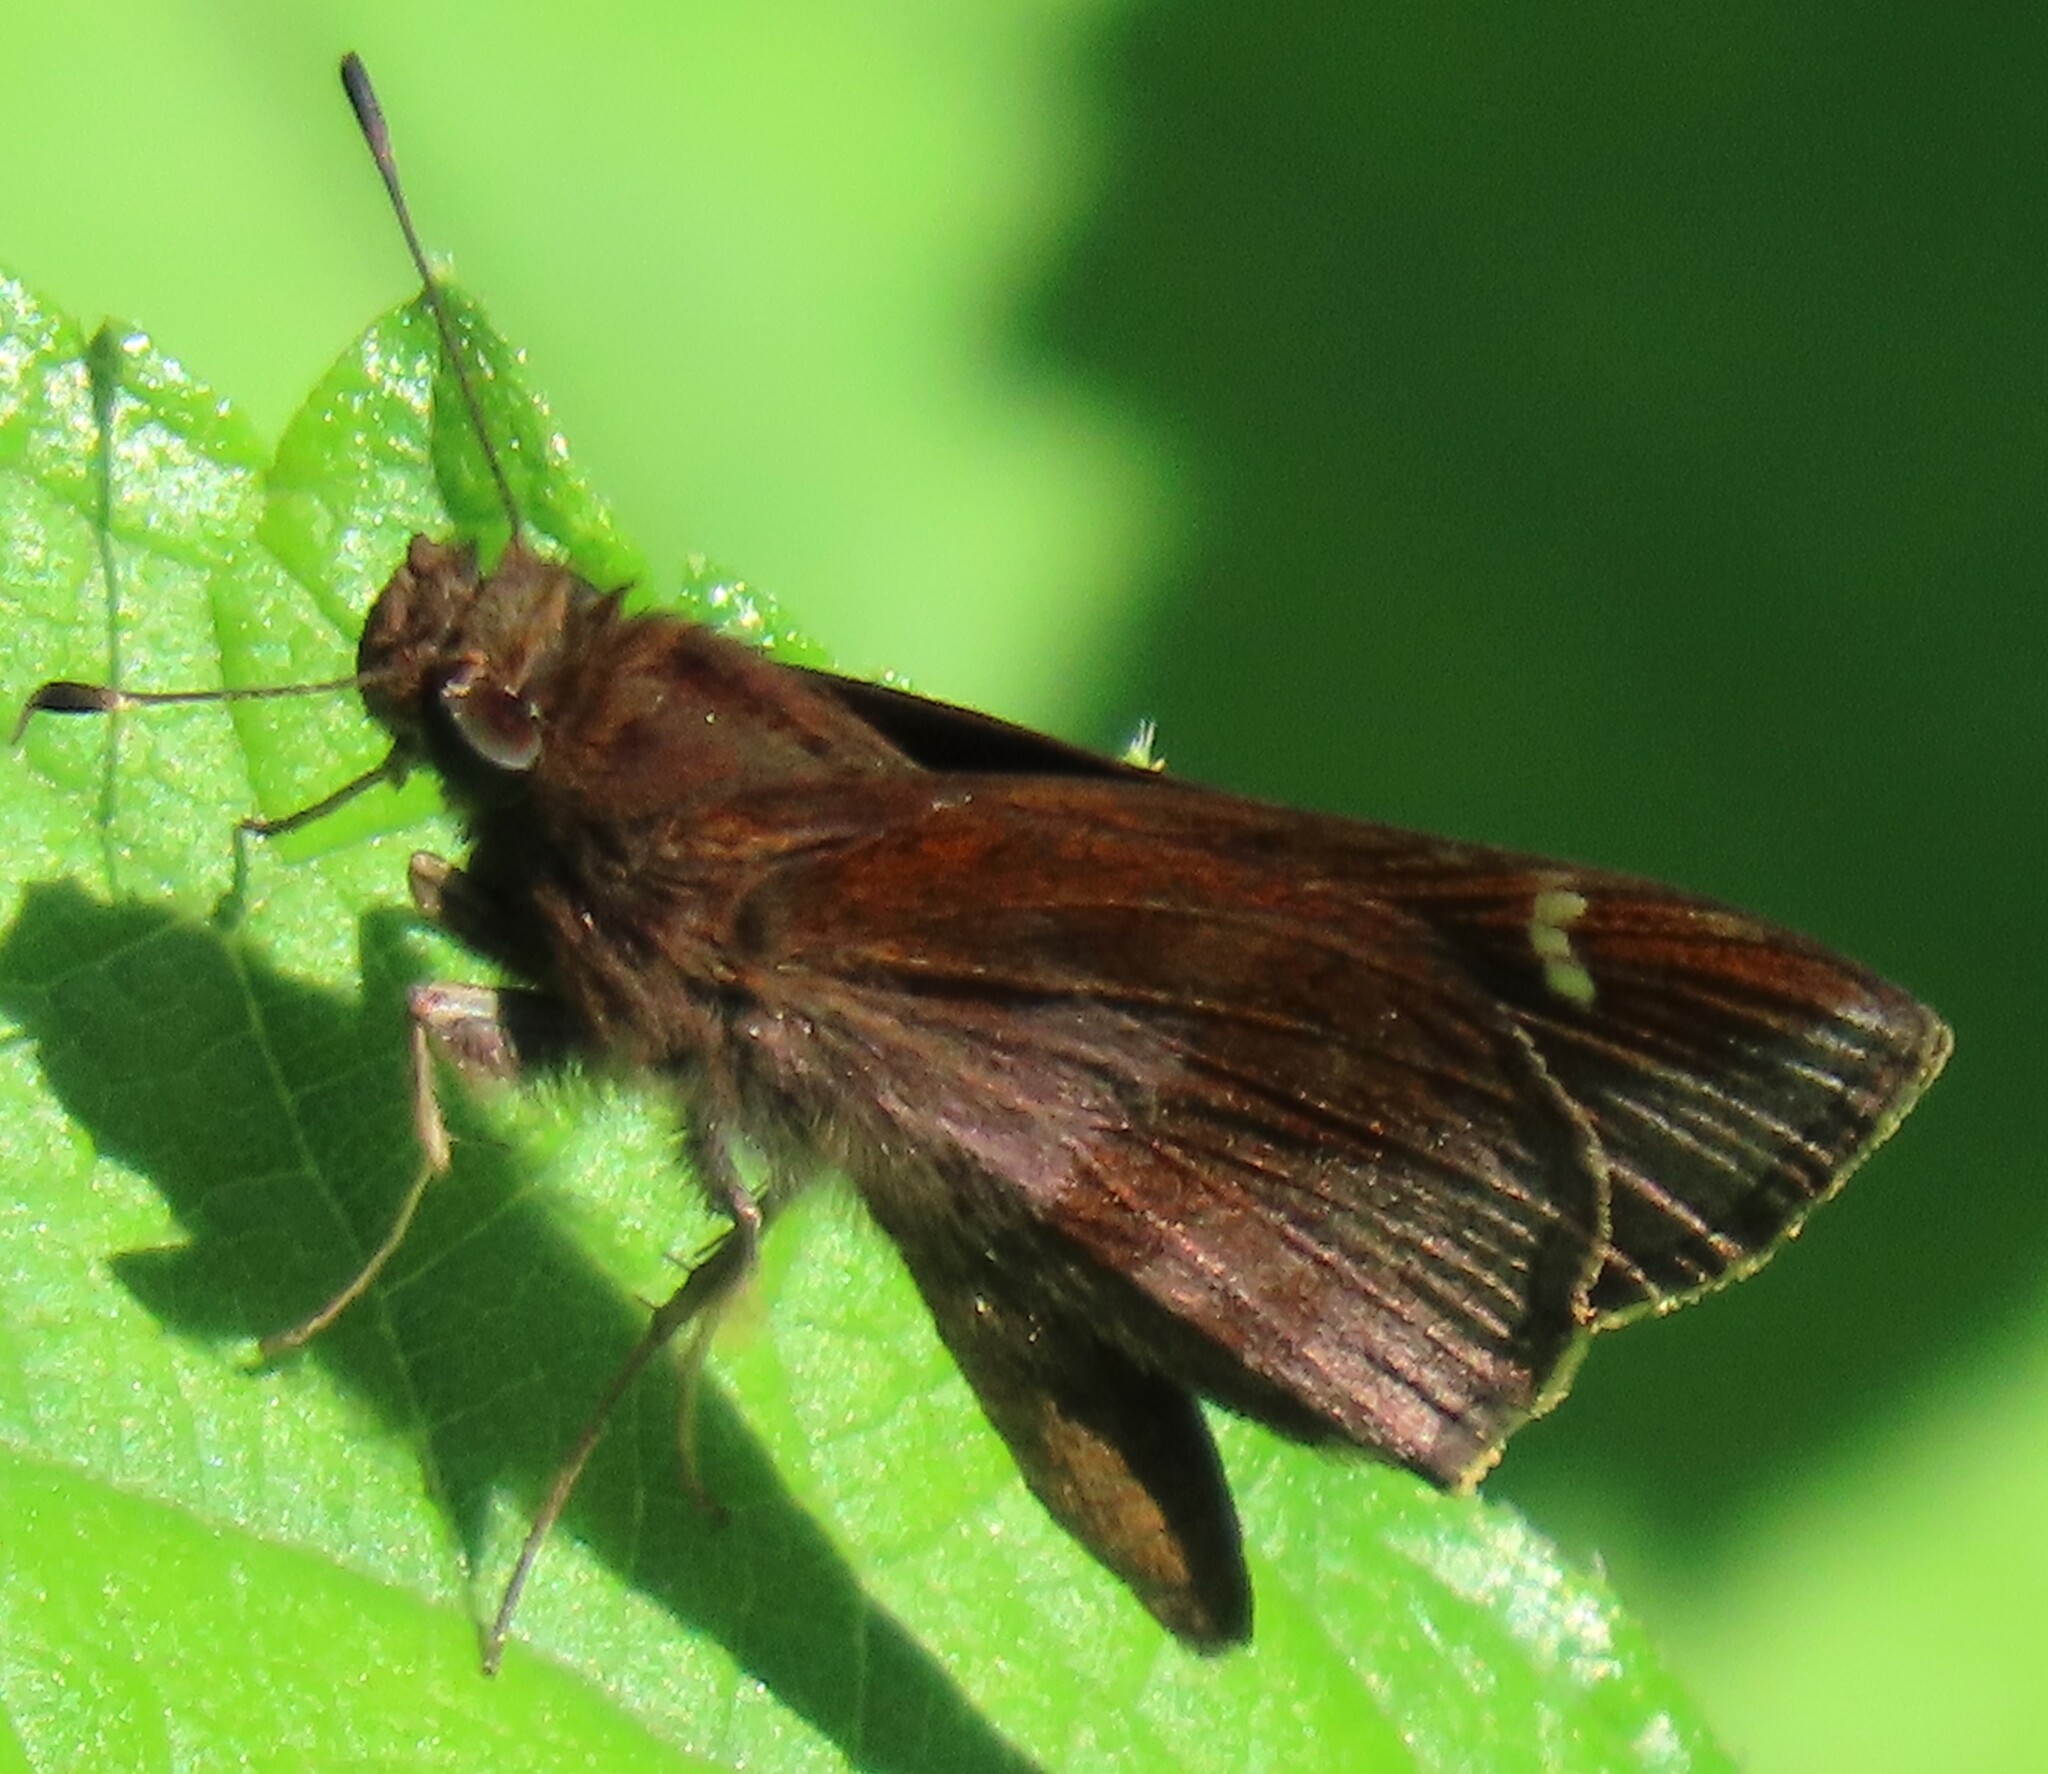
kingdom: Animalia
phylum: Arthropoda
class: Insecta
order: Lepidoptera
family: Hesperiidae
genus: Lerema
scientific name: Lerema accius
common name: Clouded skipper
